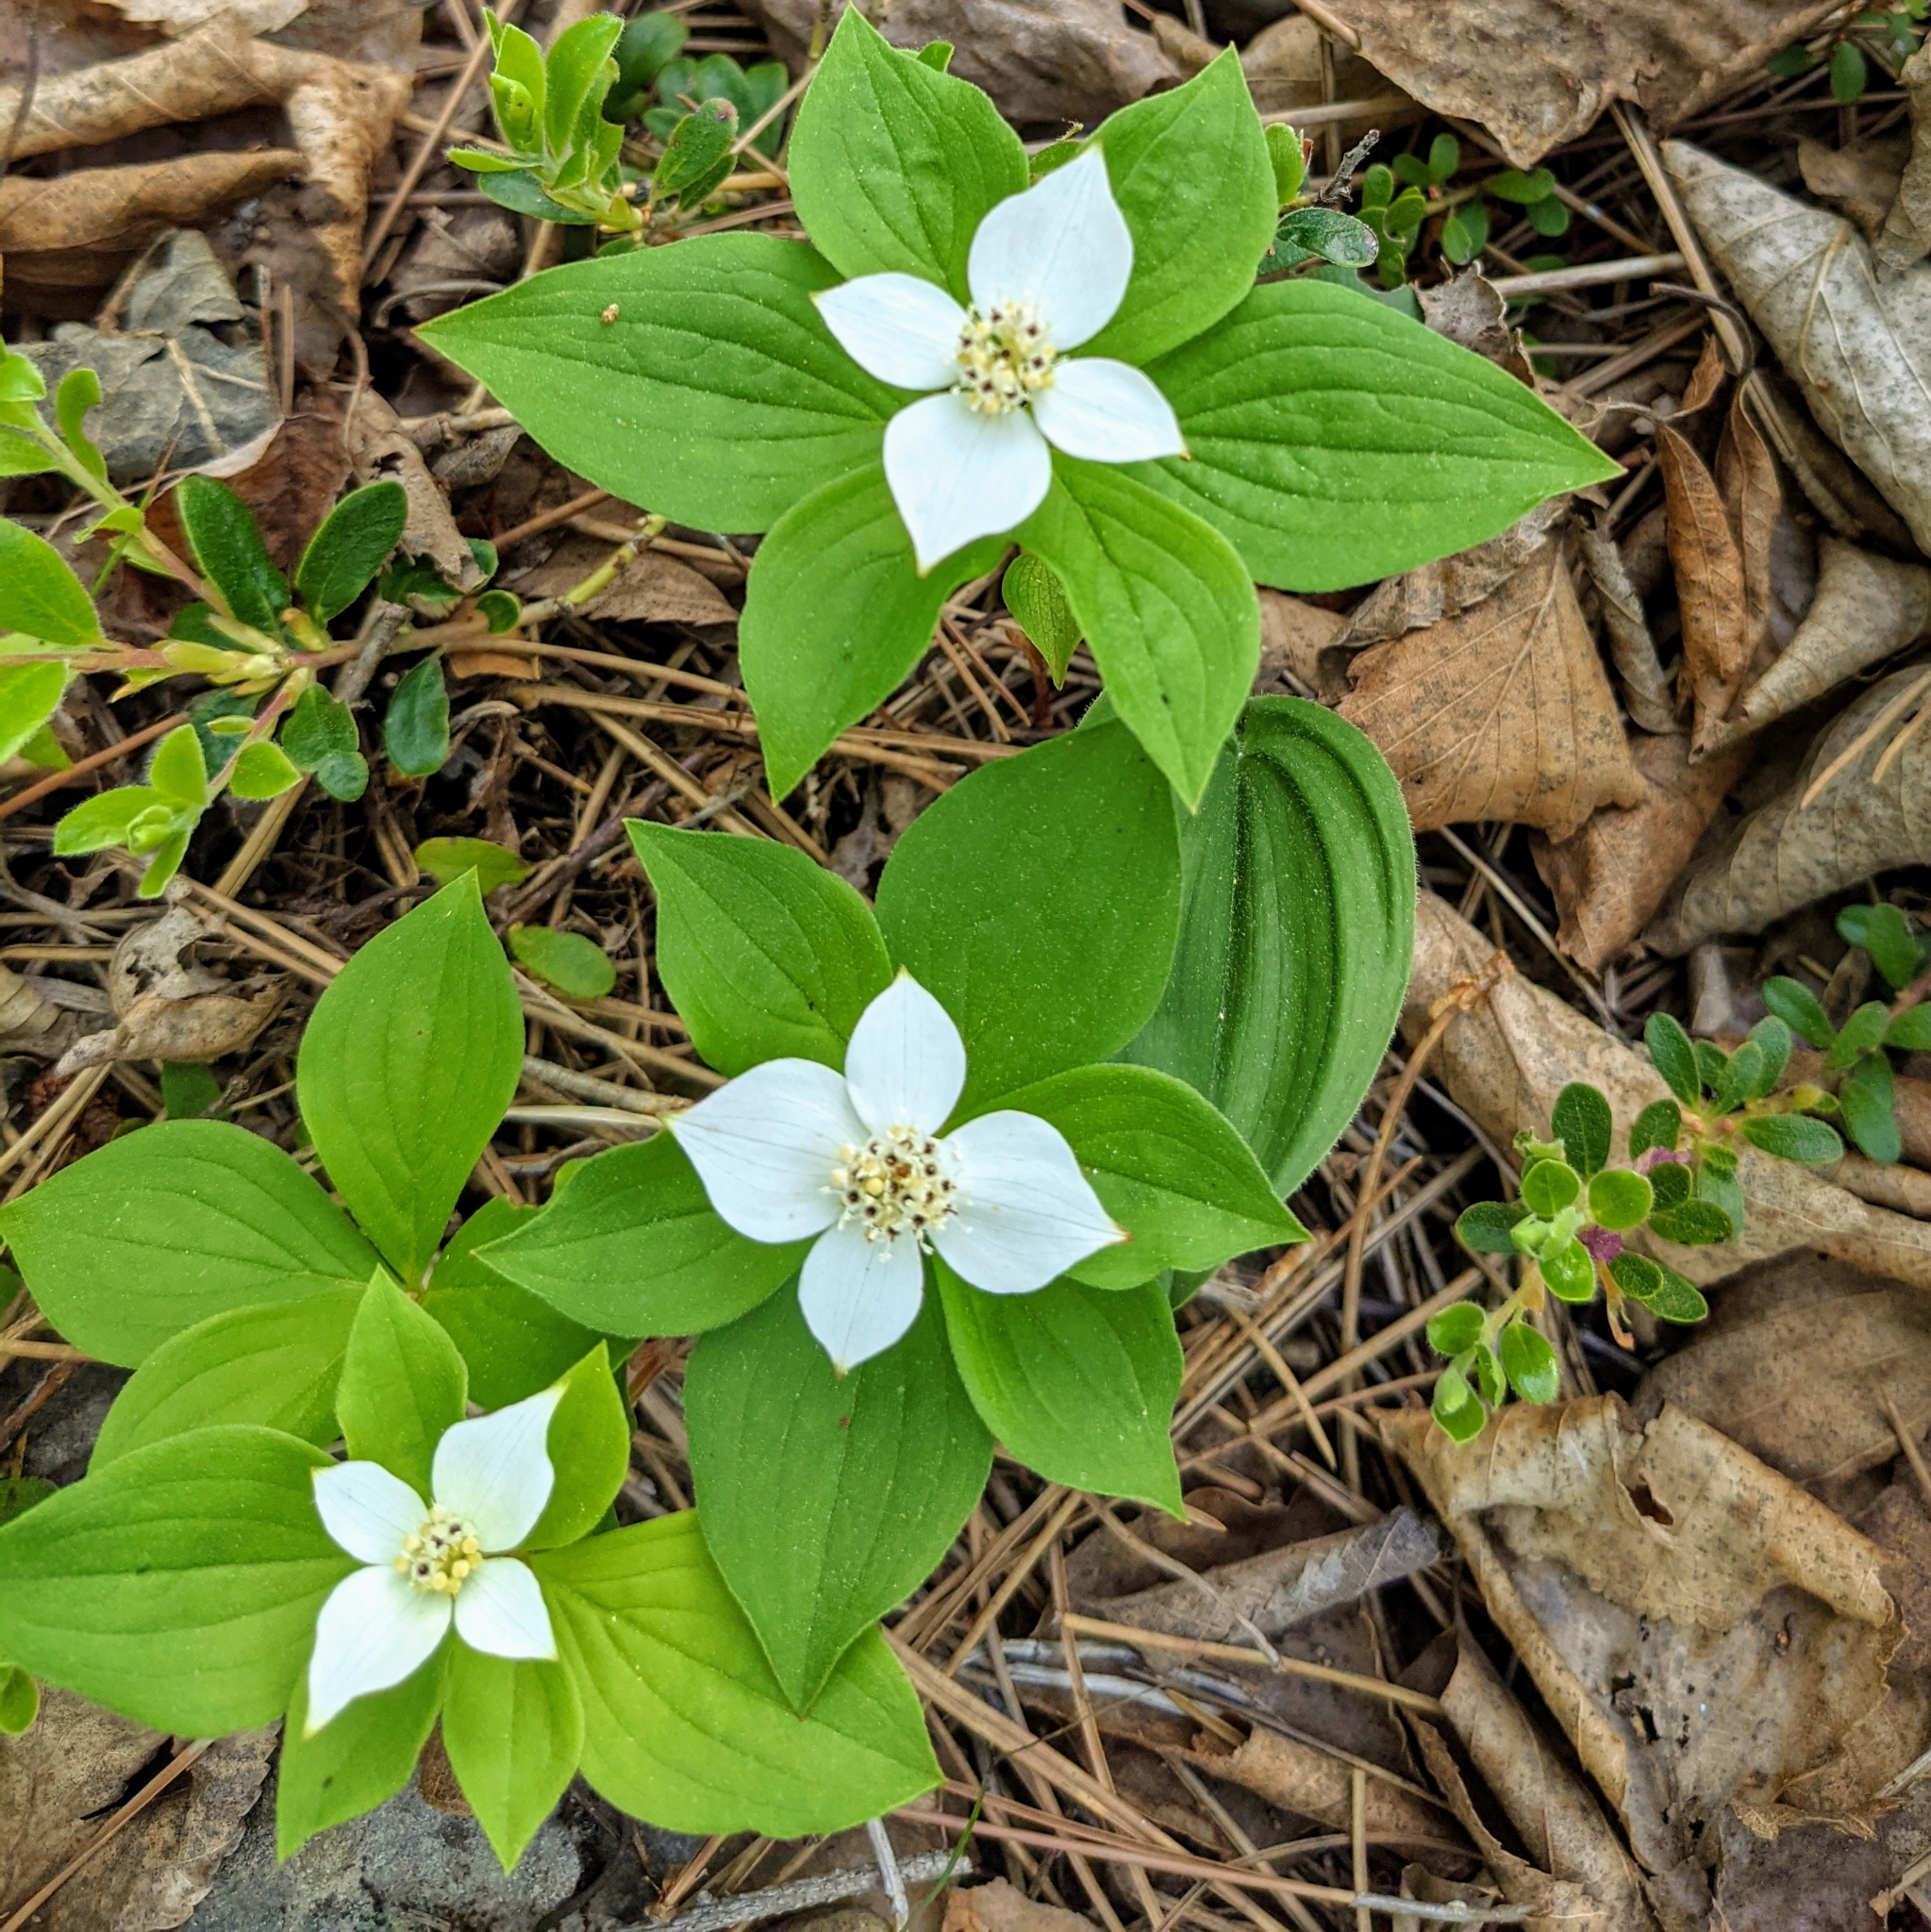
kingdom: Plantae
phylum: Tracheophyta
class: Magnoliopsida
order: Cornales
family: Cornaceae
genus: Cornus
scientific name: Cornus canadensis
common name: Creeping dogwood
